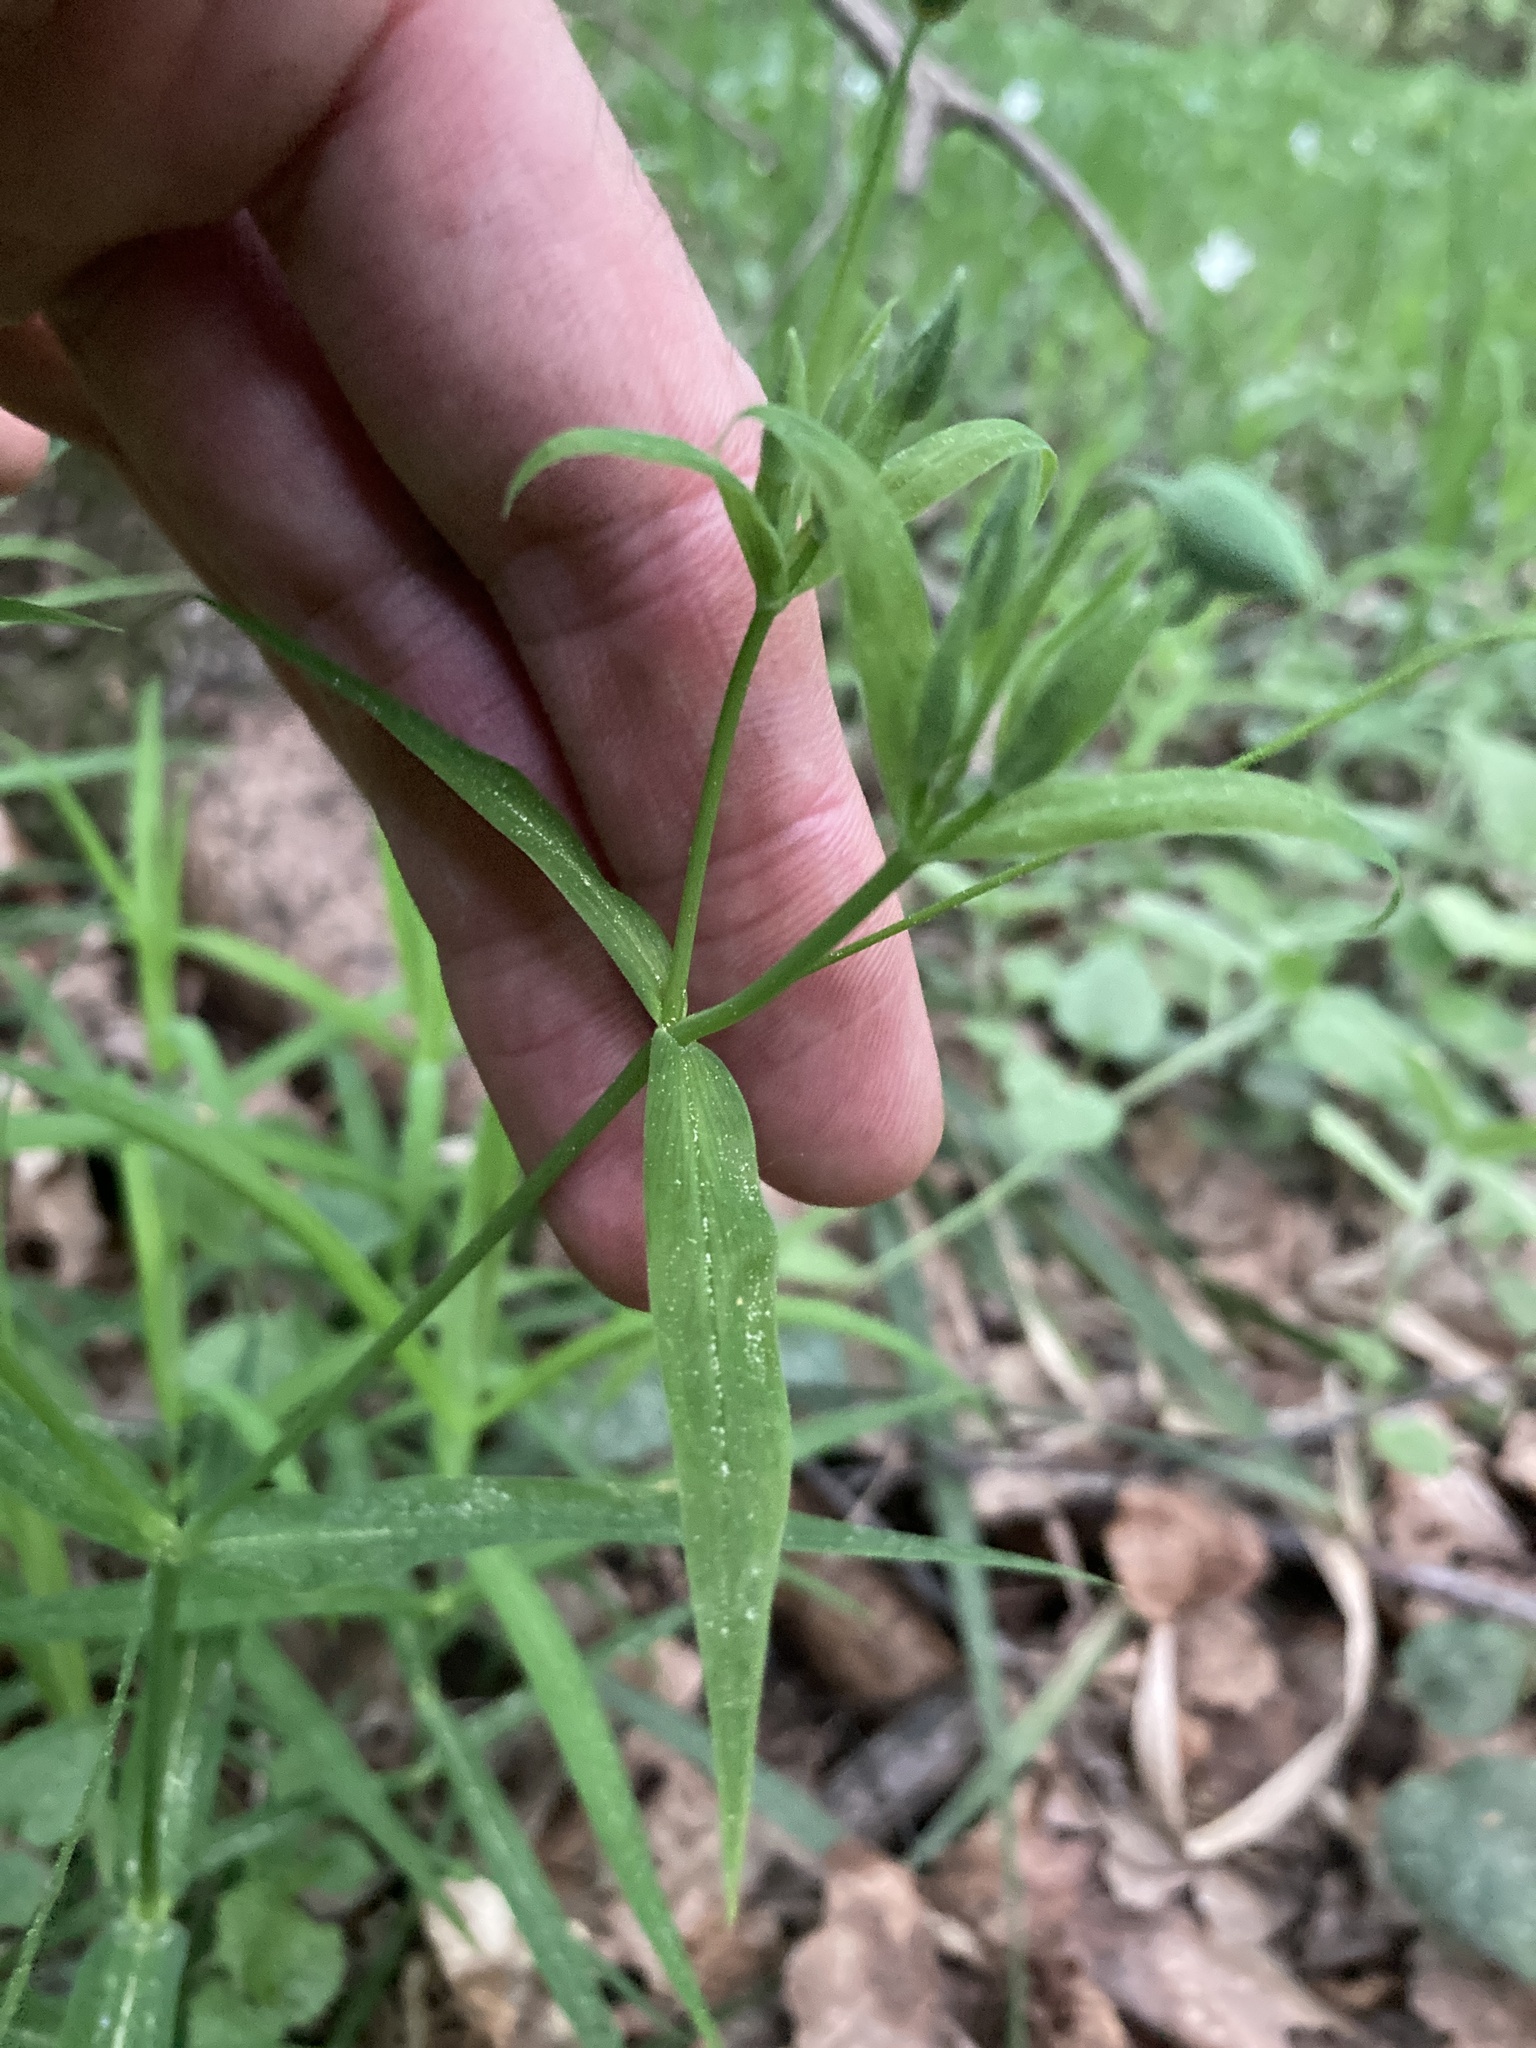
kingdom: Plantae
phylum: Tracheophyta
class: Magnoliopsida
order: Caryophyllales
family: Caryophyllaceae
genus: Rabelera
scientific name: Rabelera holostea
